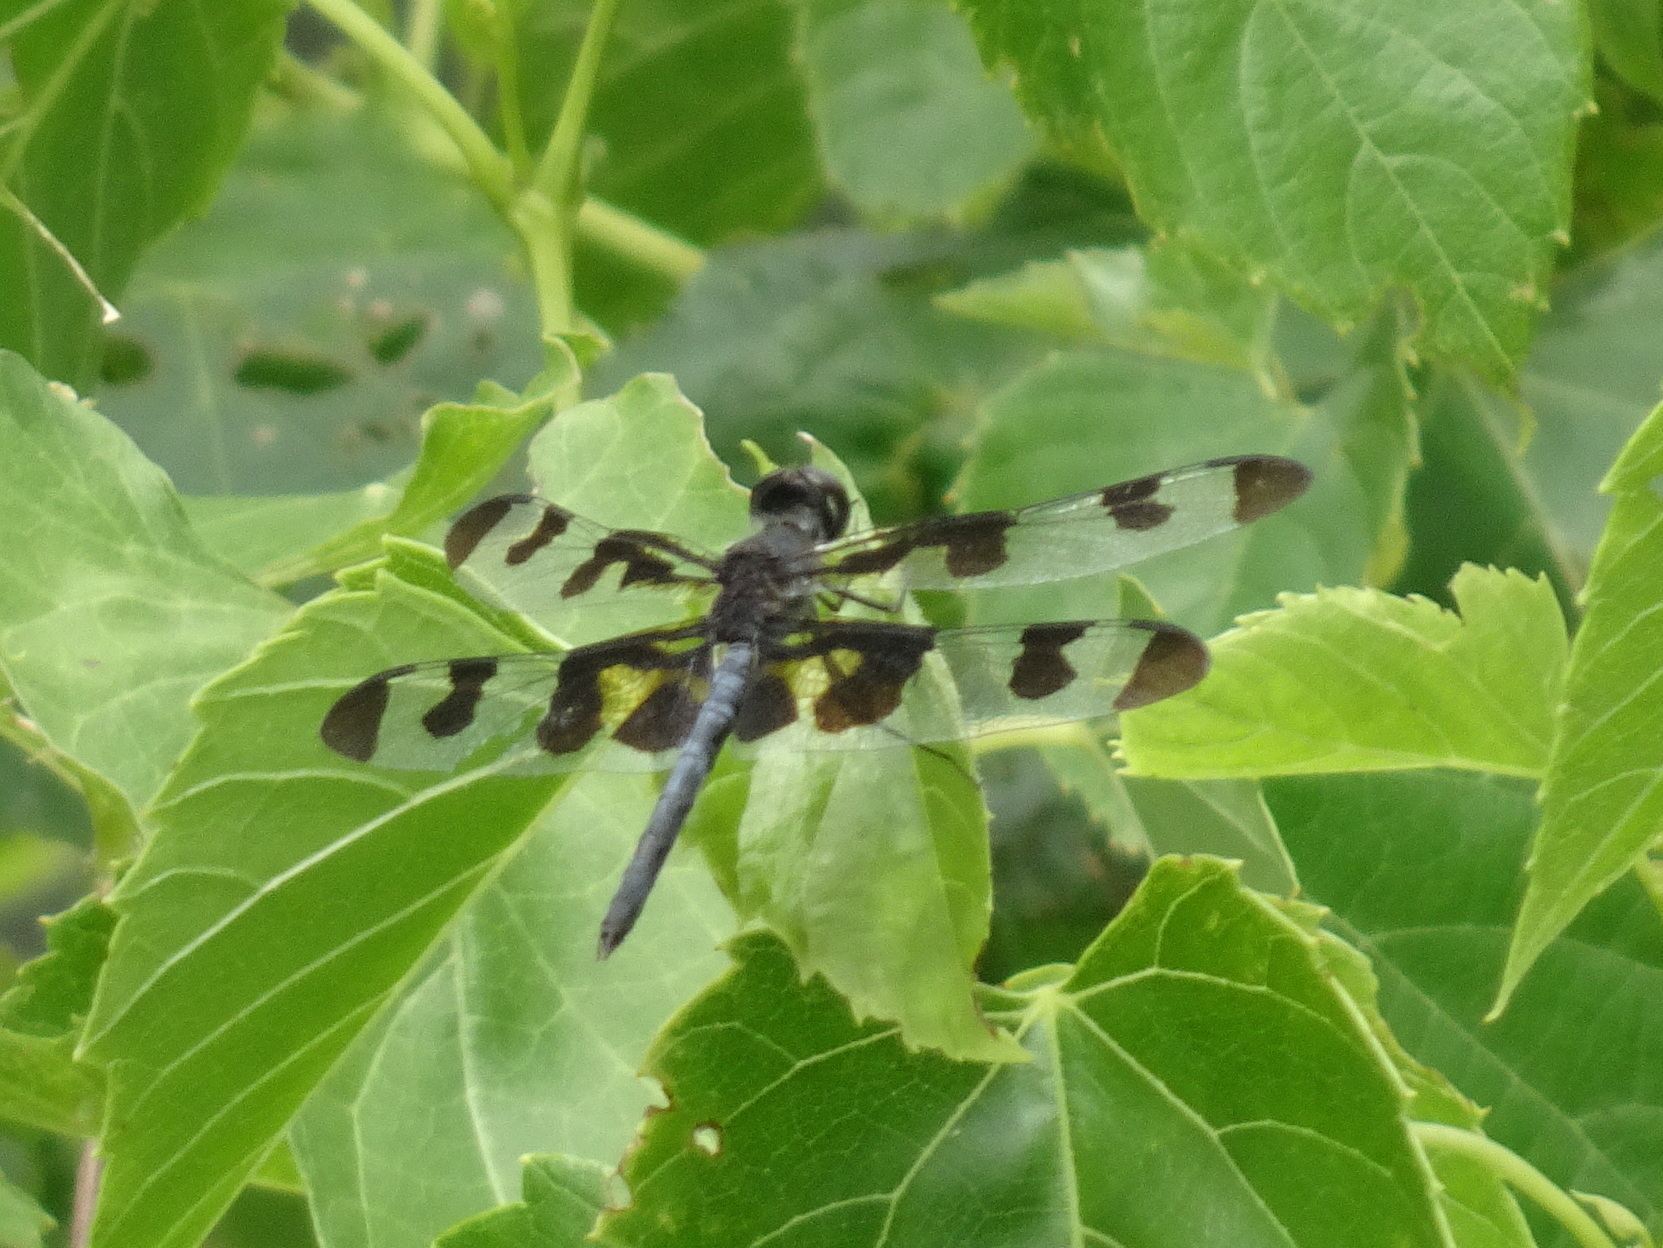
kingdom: Animalia
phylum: Arthropoda
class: Insecta
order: Odonata
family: Libellulidae
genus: Celithemis
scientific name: Celithemis fasciata
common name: Banded pennant
